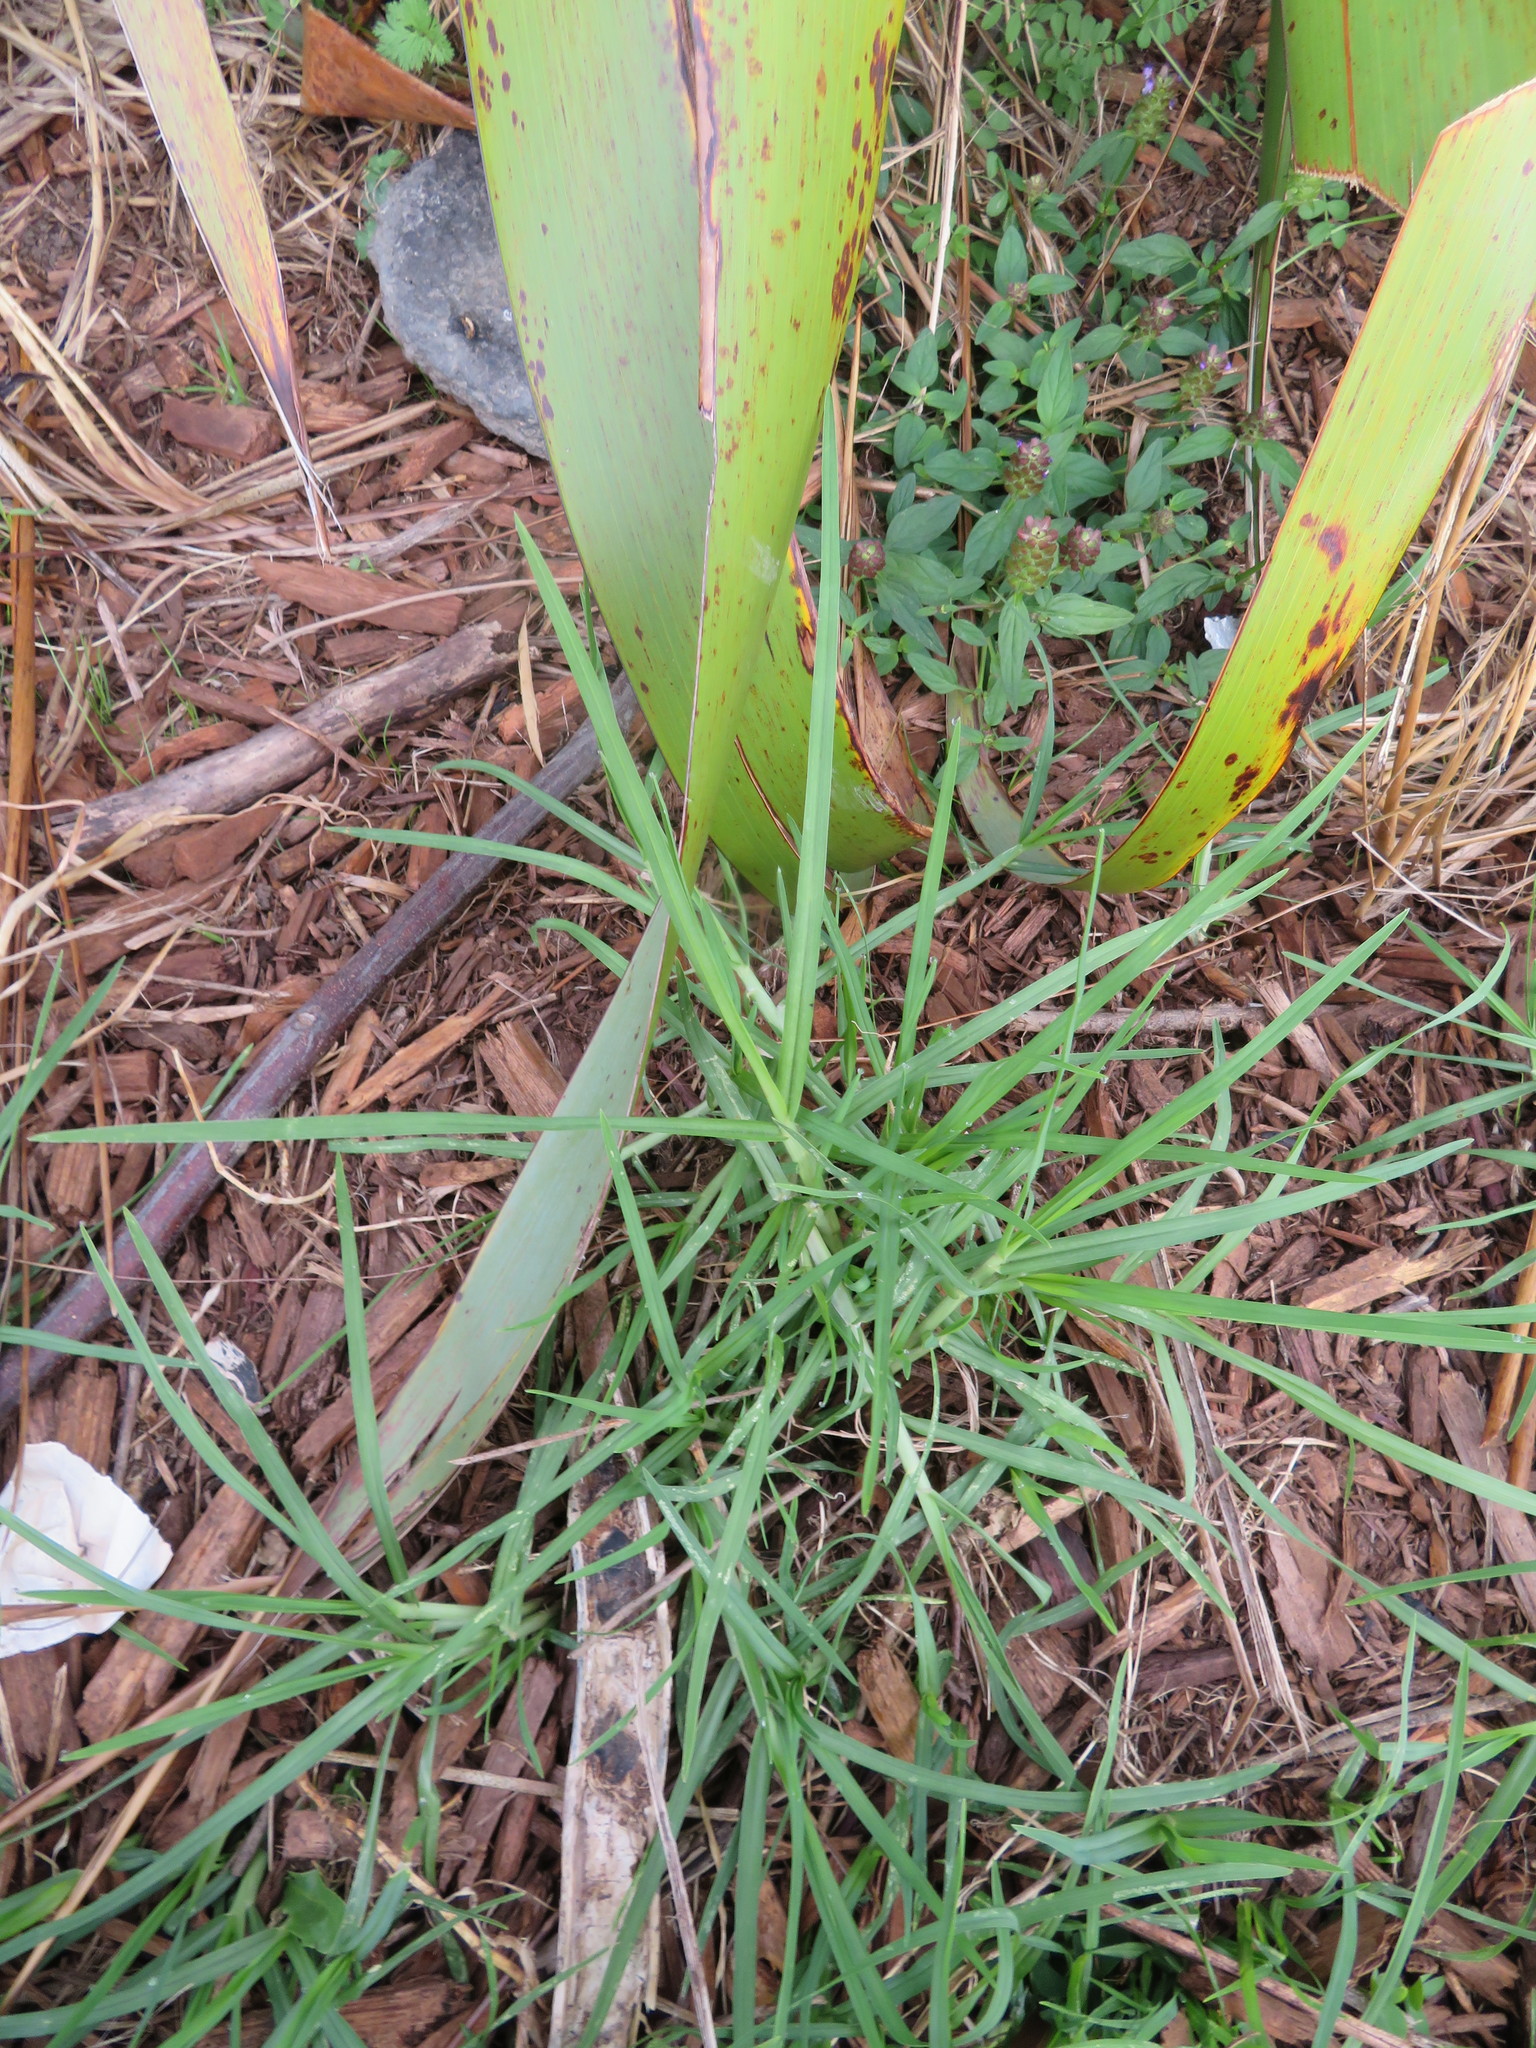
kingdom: Plantae
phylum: Tracheophyta
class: Liliopsida
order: Poales
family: Poaceae
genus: Cenchrus
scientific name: Cenchrus clandestinus
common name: Kikuyugrass
